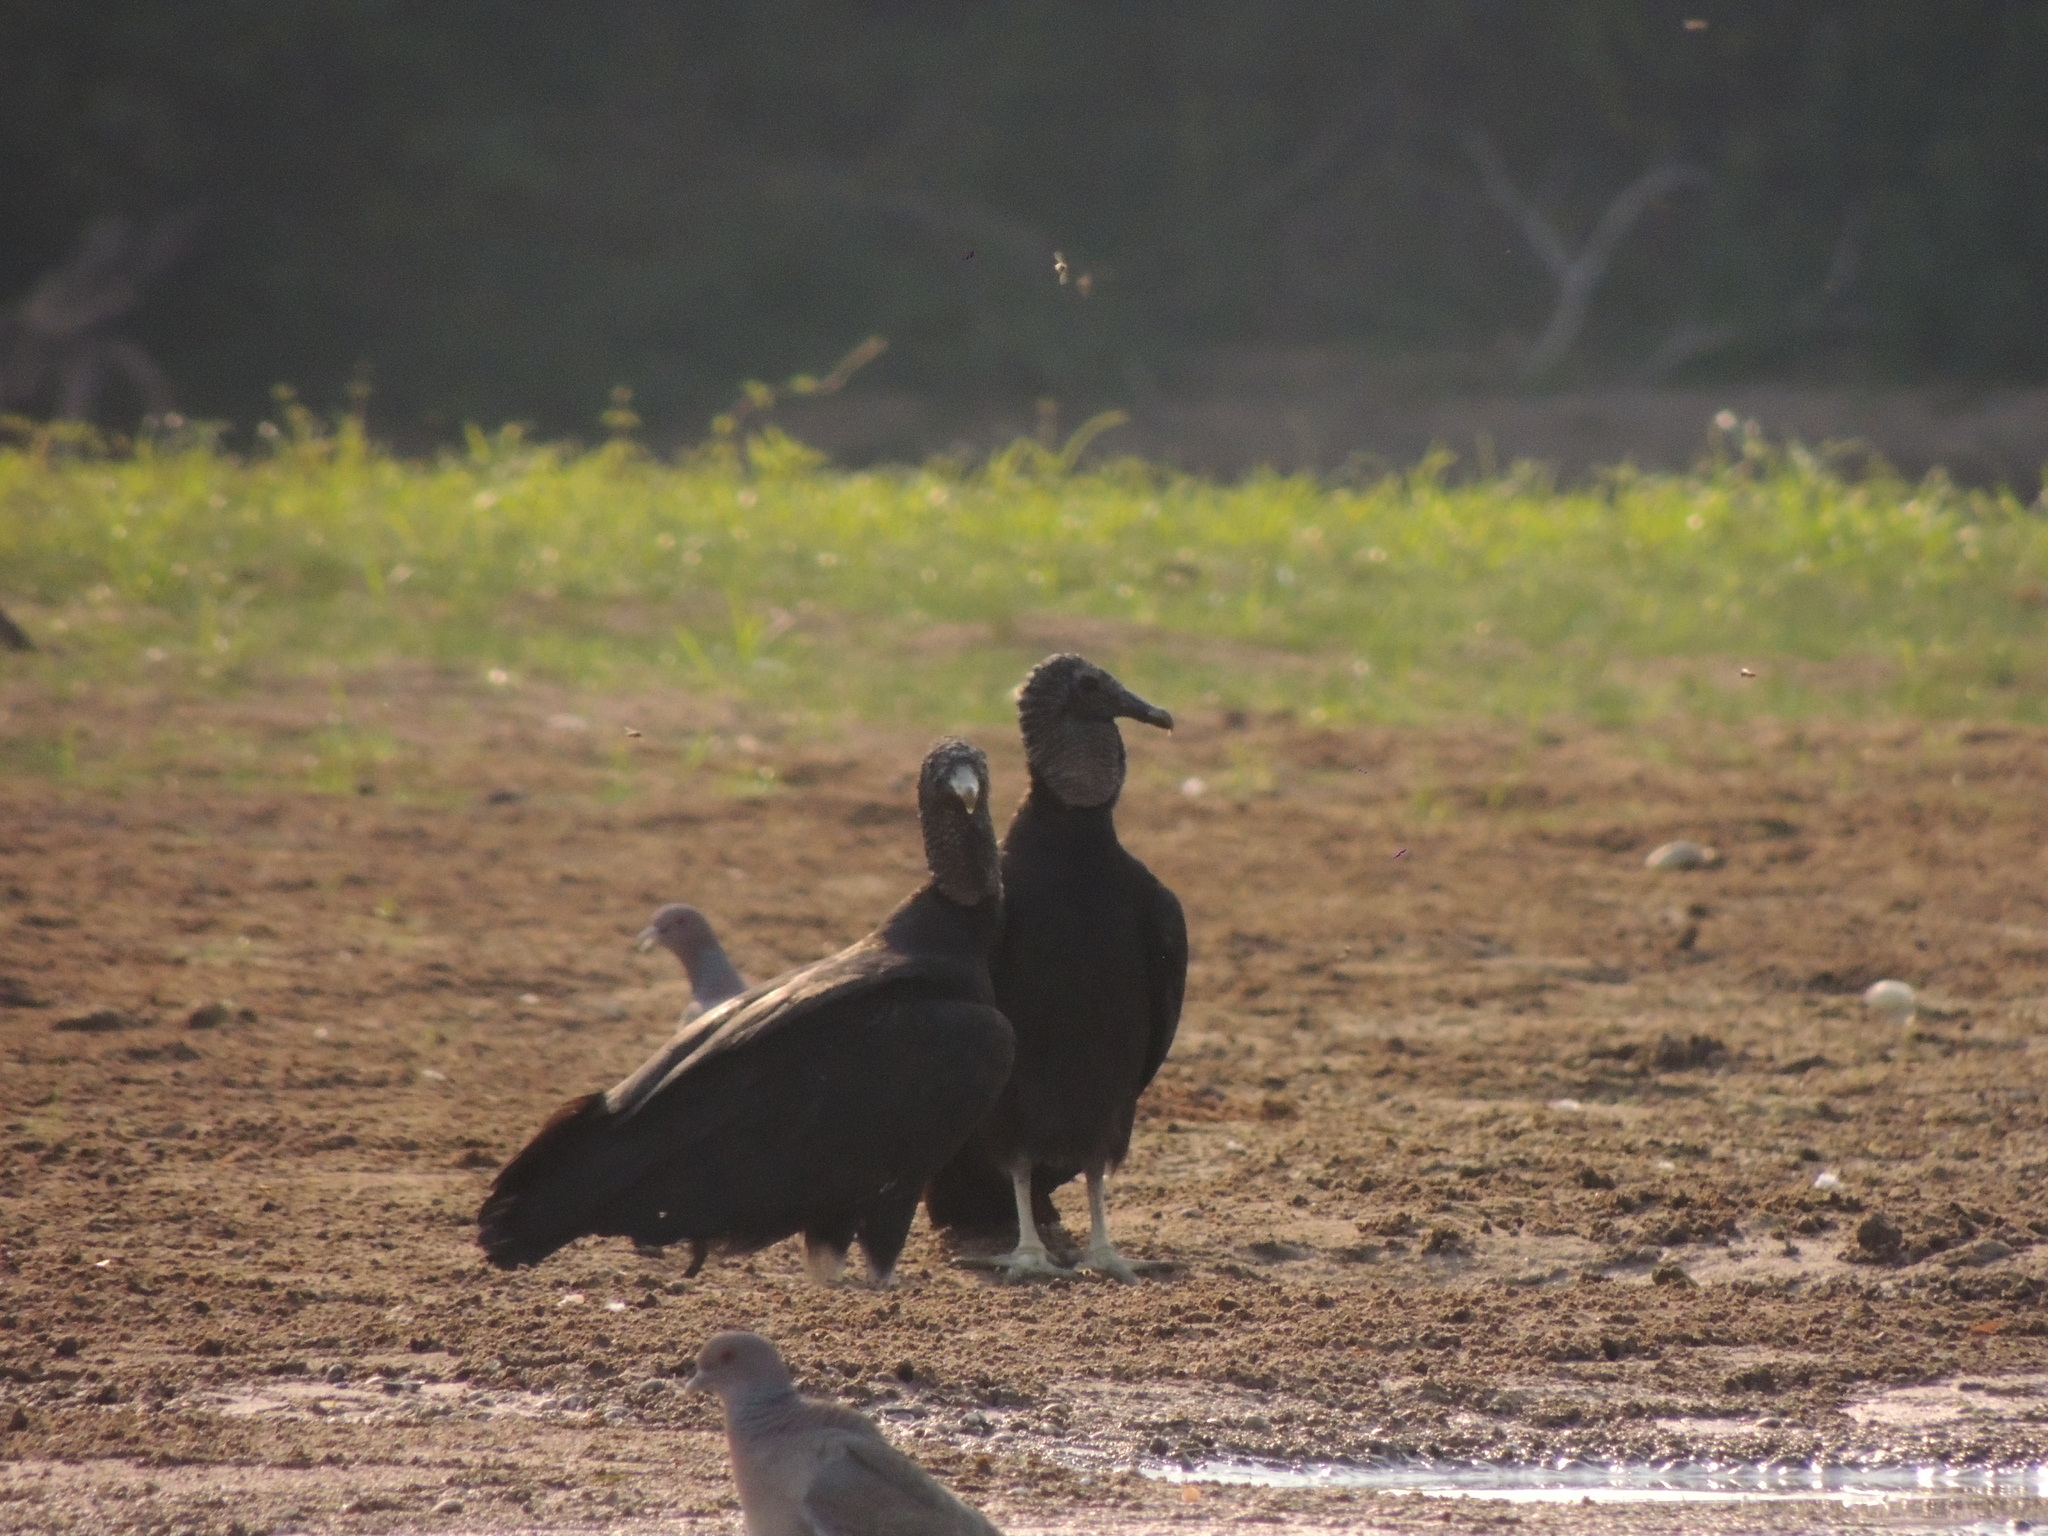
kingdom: Animalia
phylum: Chordata
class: Aves
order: Accipitriformes
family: Cathartidae
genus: Coragyps
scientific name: Coragyps atratus
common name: Black vulture
